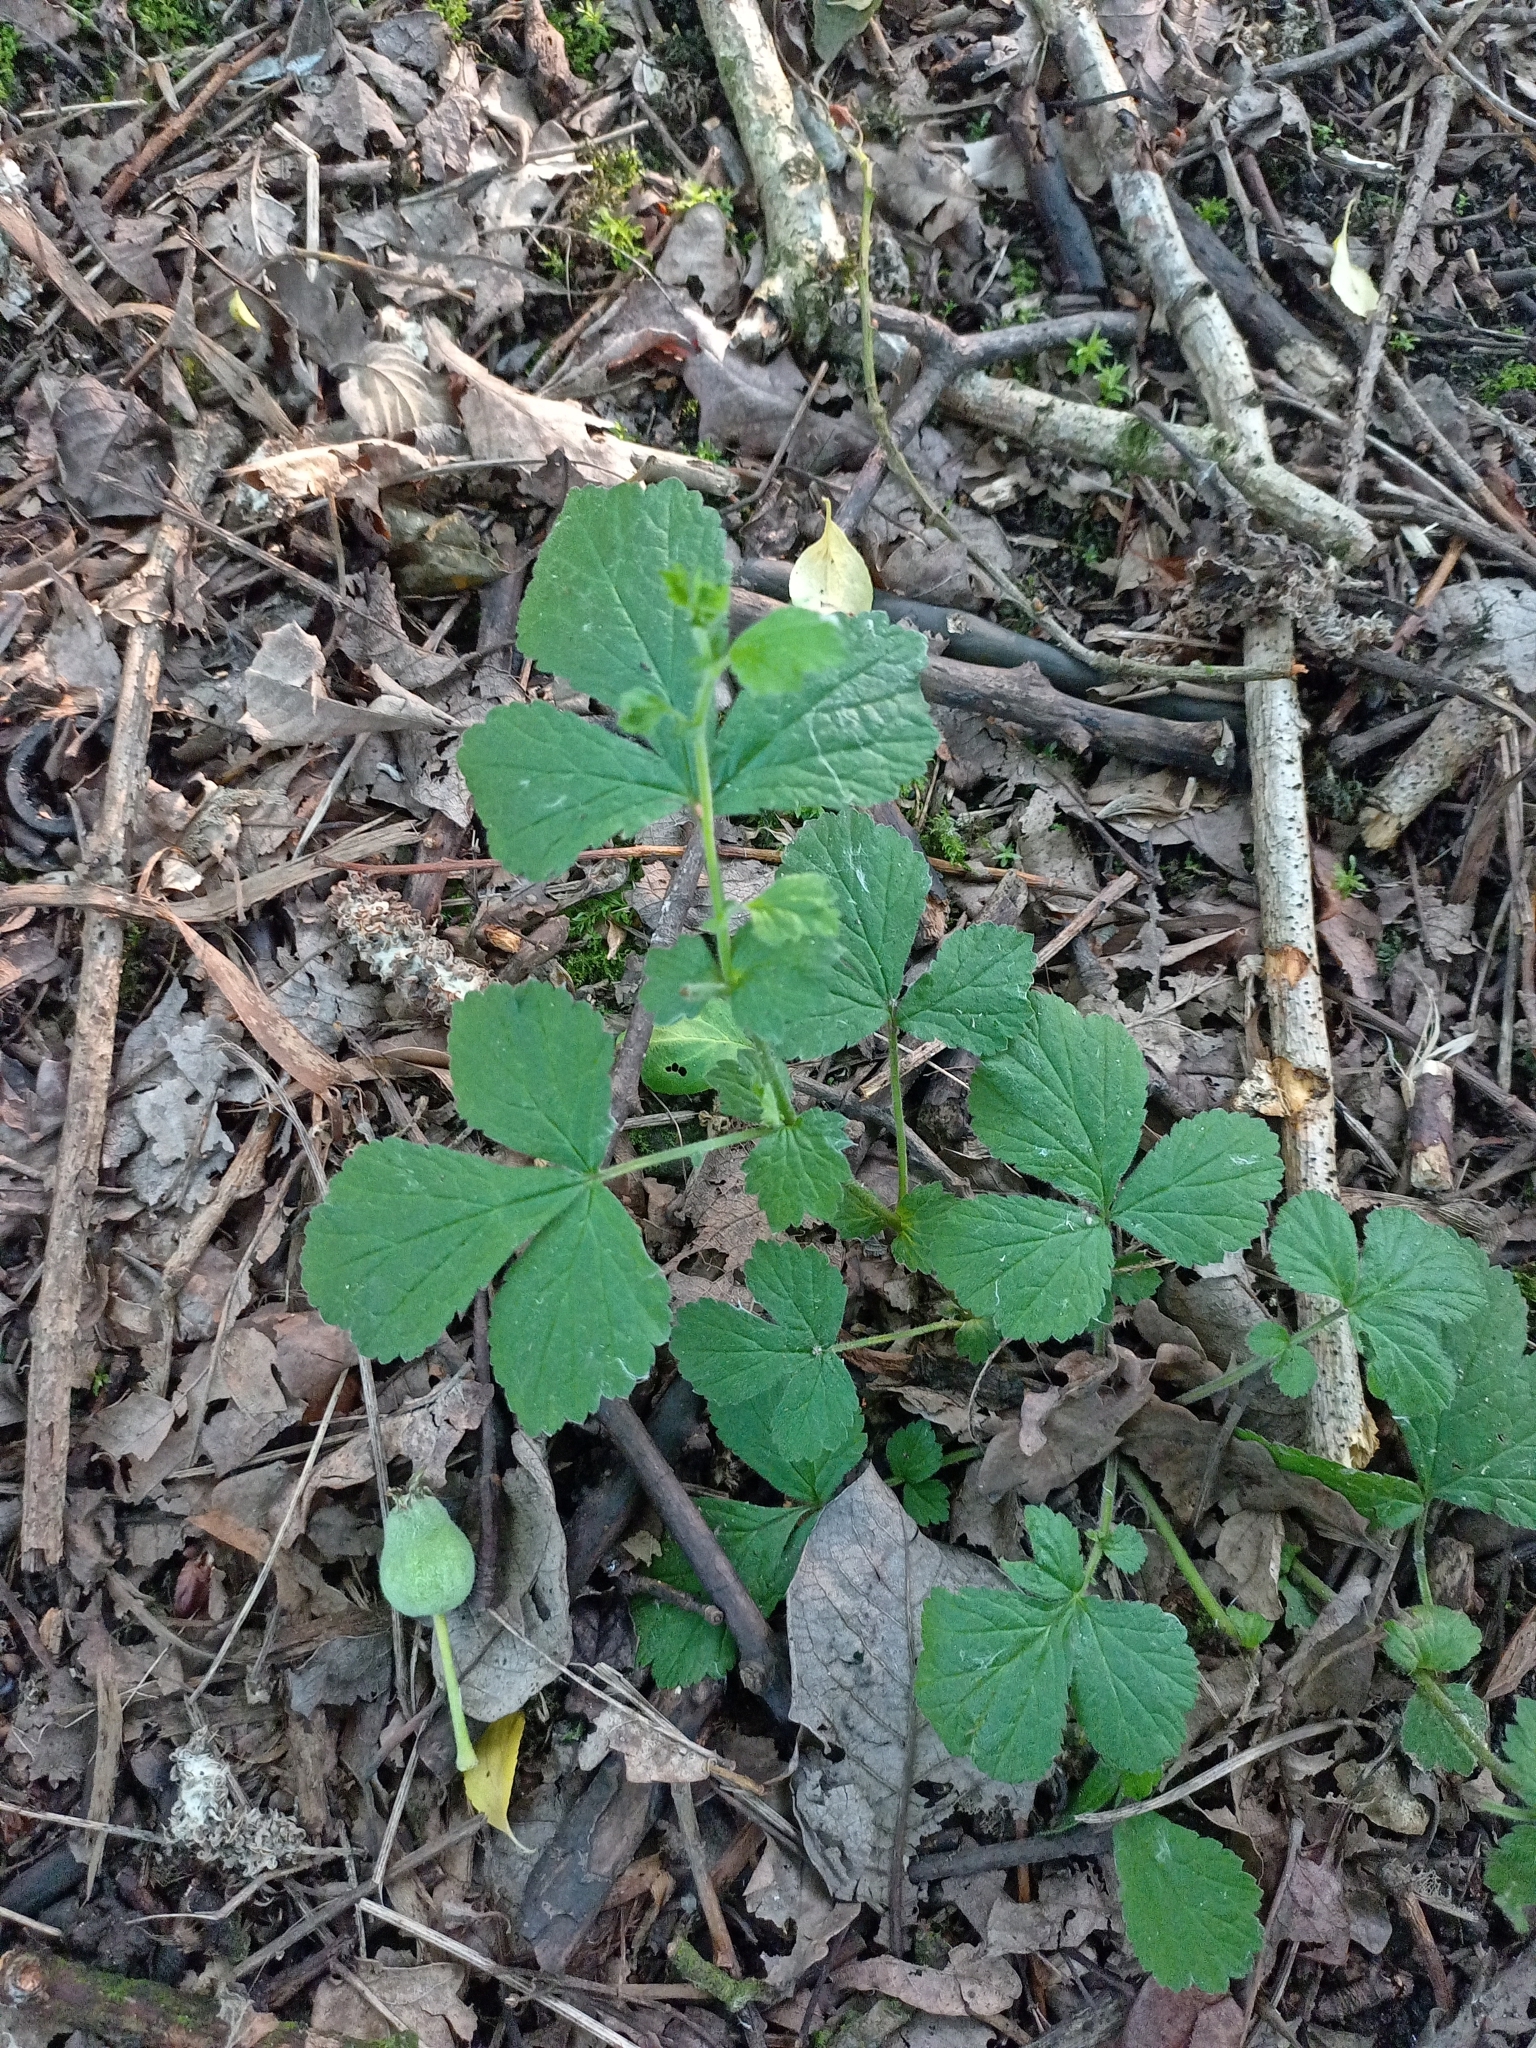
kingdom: Plantae
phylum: Tracheophyta
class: Magnoliopsida
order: Rosales
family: Rosaceae
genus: Geum
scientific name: Geum urbanum
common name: Wood avens
